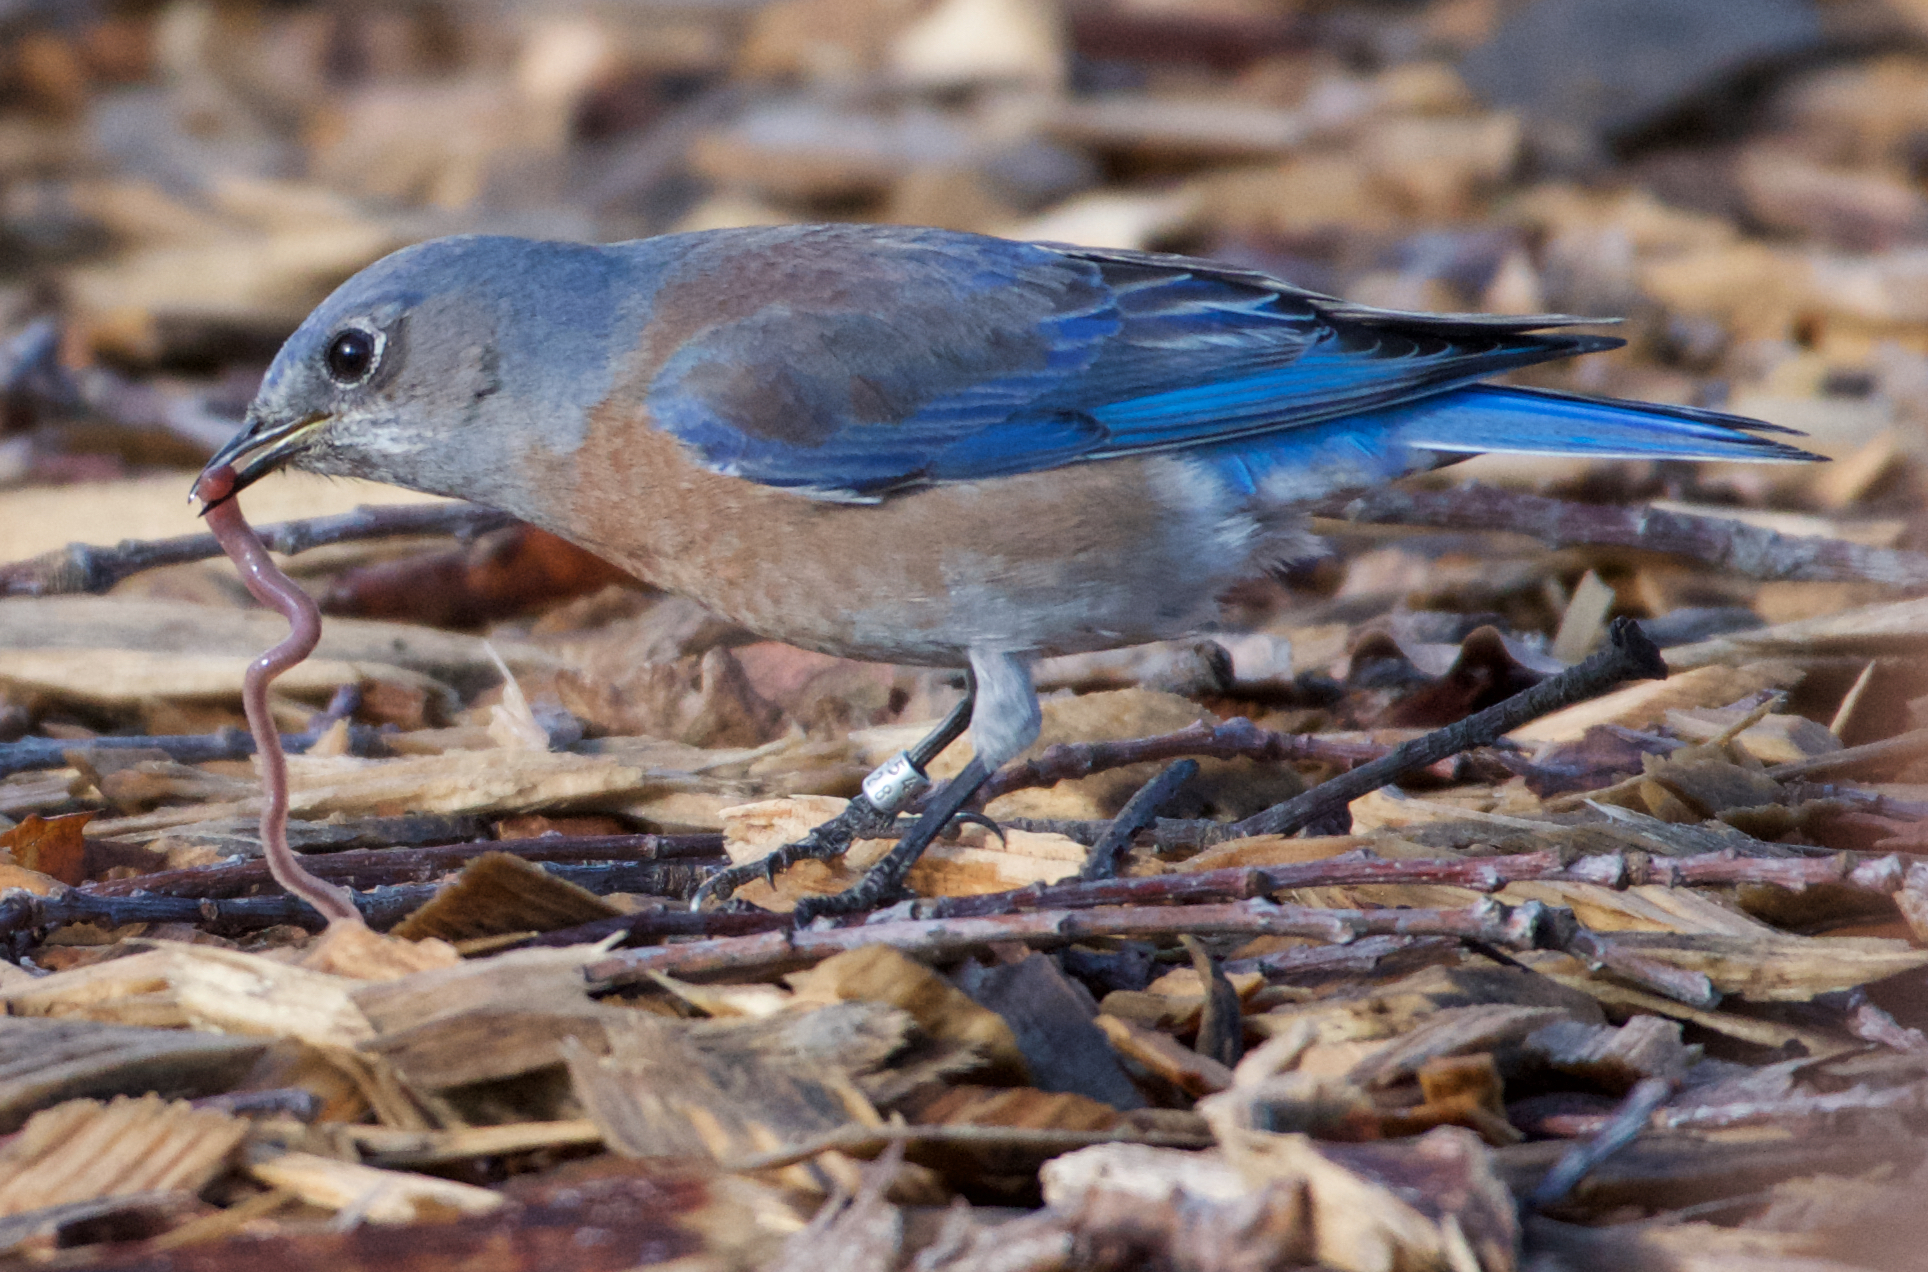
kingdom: Animalia
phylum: Chordata
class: Aves
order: Passeriformes
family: Turdidae
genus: Sialia
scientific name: Sialia mexicana
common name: Western bluebird
